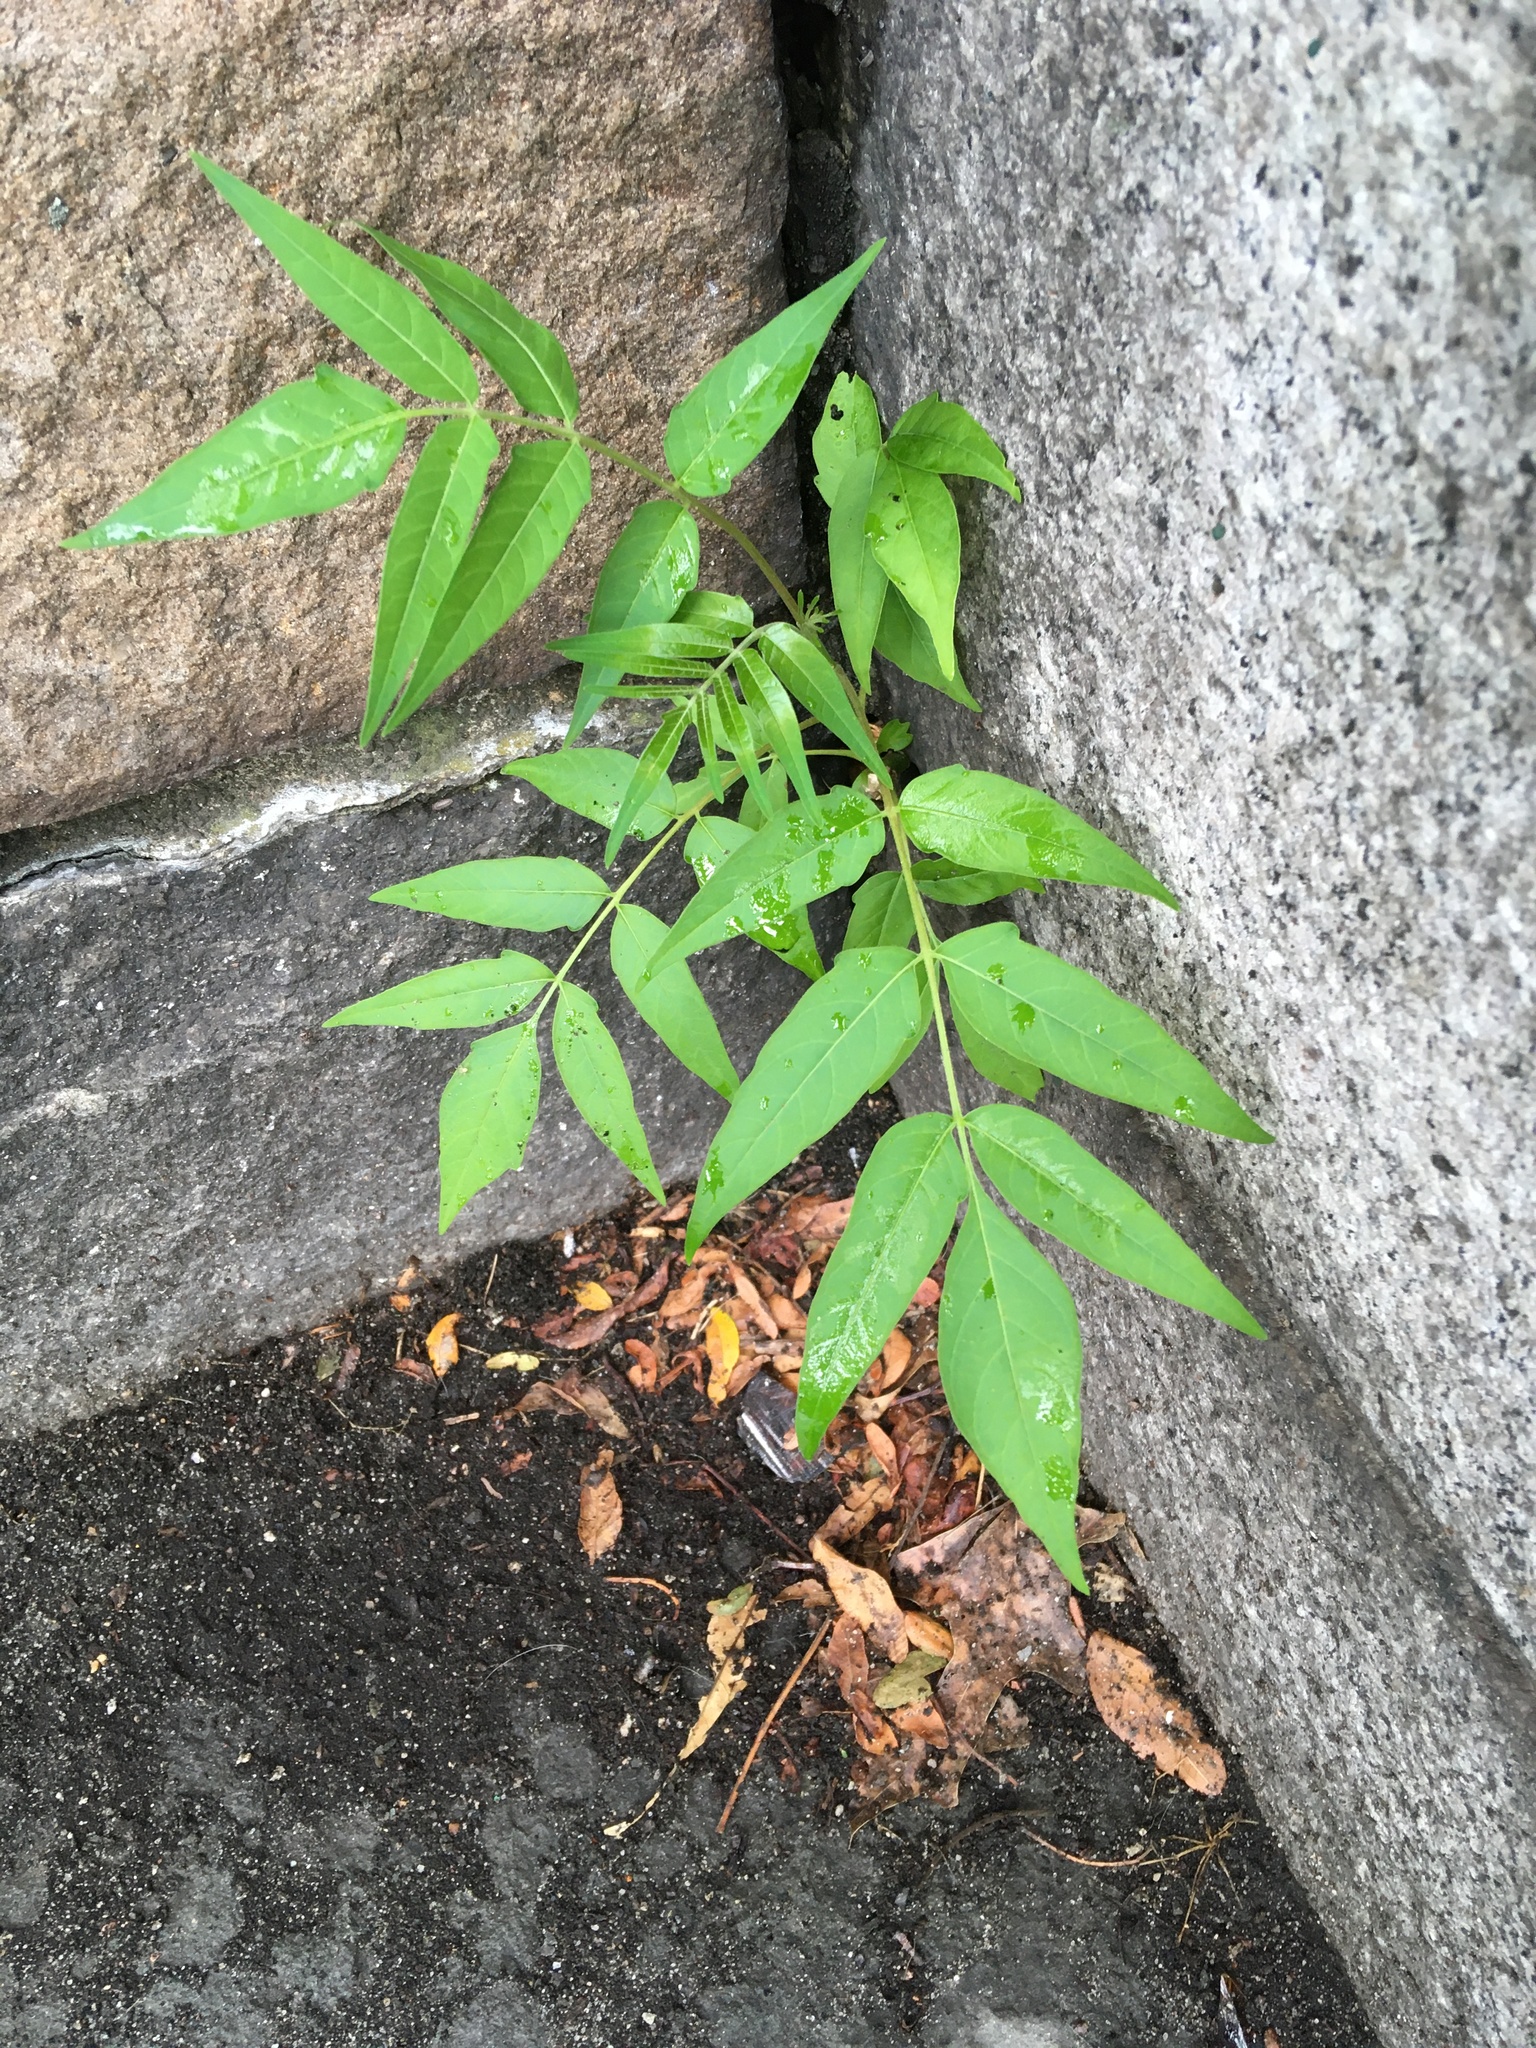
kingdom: Plantae
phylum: Tracheophyta
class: Magnoliopsida
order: Sapindales
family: Simaroubaceae
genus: Ailanthus
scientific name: Ailanthus altissima
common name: Tree-of-heaven
